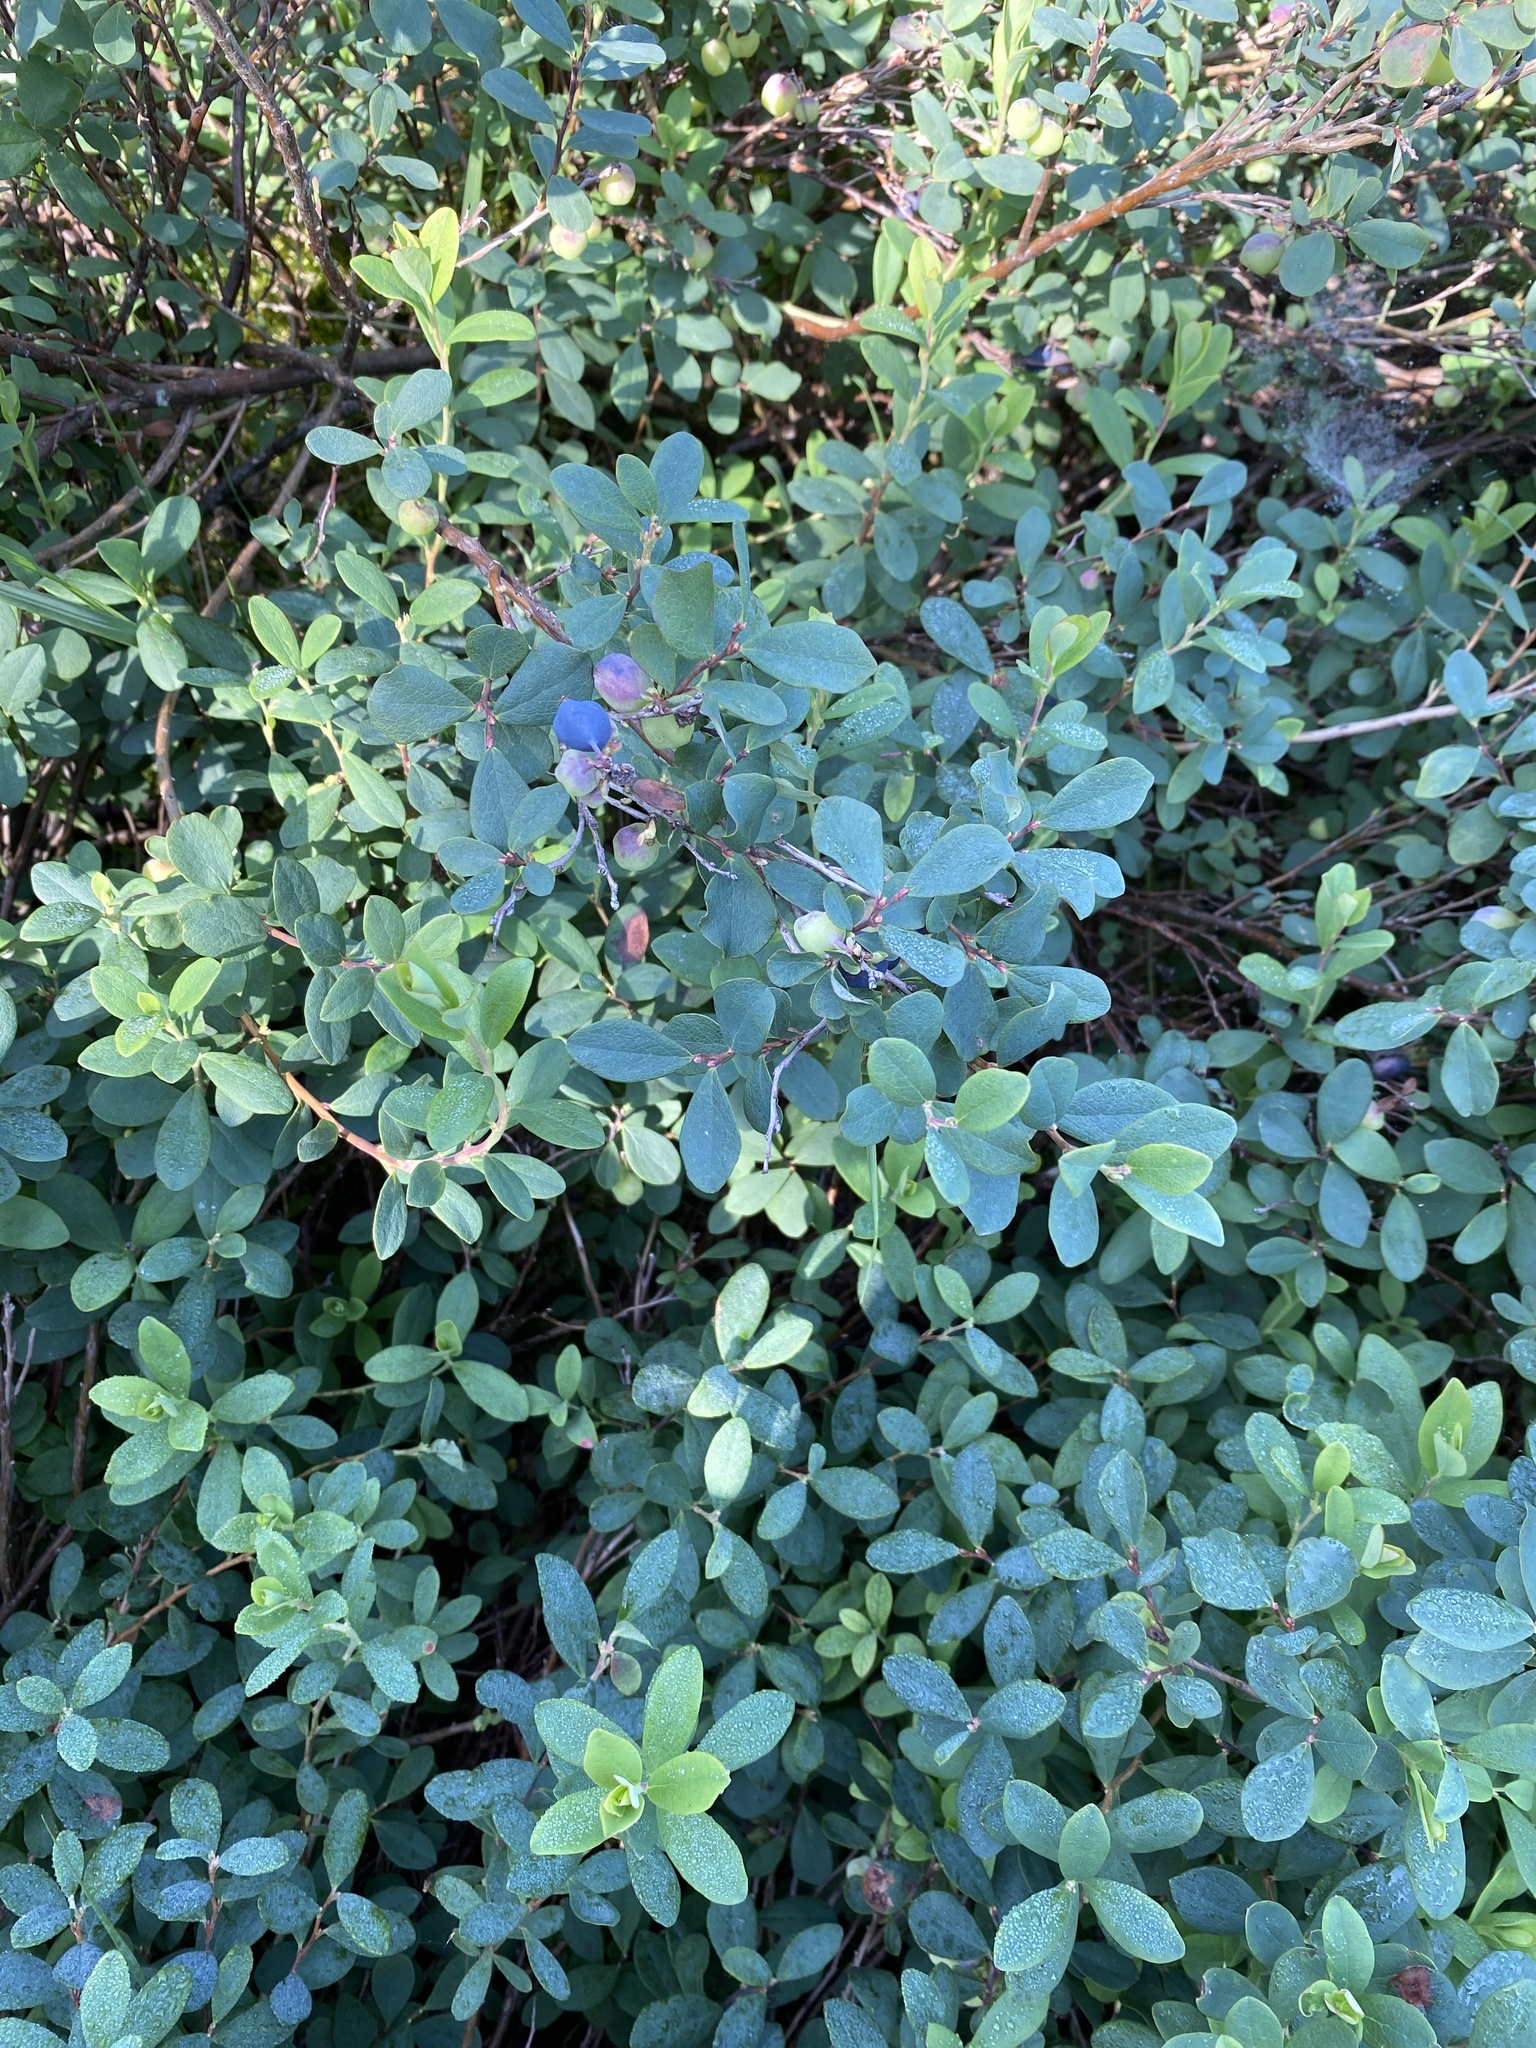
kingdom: Plantae
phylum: Tracheophyta
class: Magnoliopsida
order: Ericales
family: Ericaceae
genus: Vaccinium
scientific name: Vaccinium uliginosum
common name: Bog bilberry
